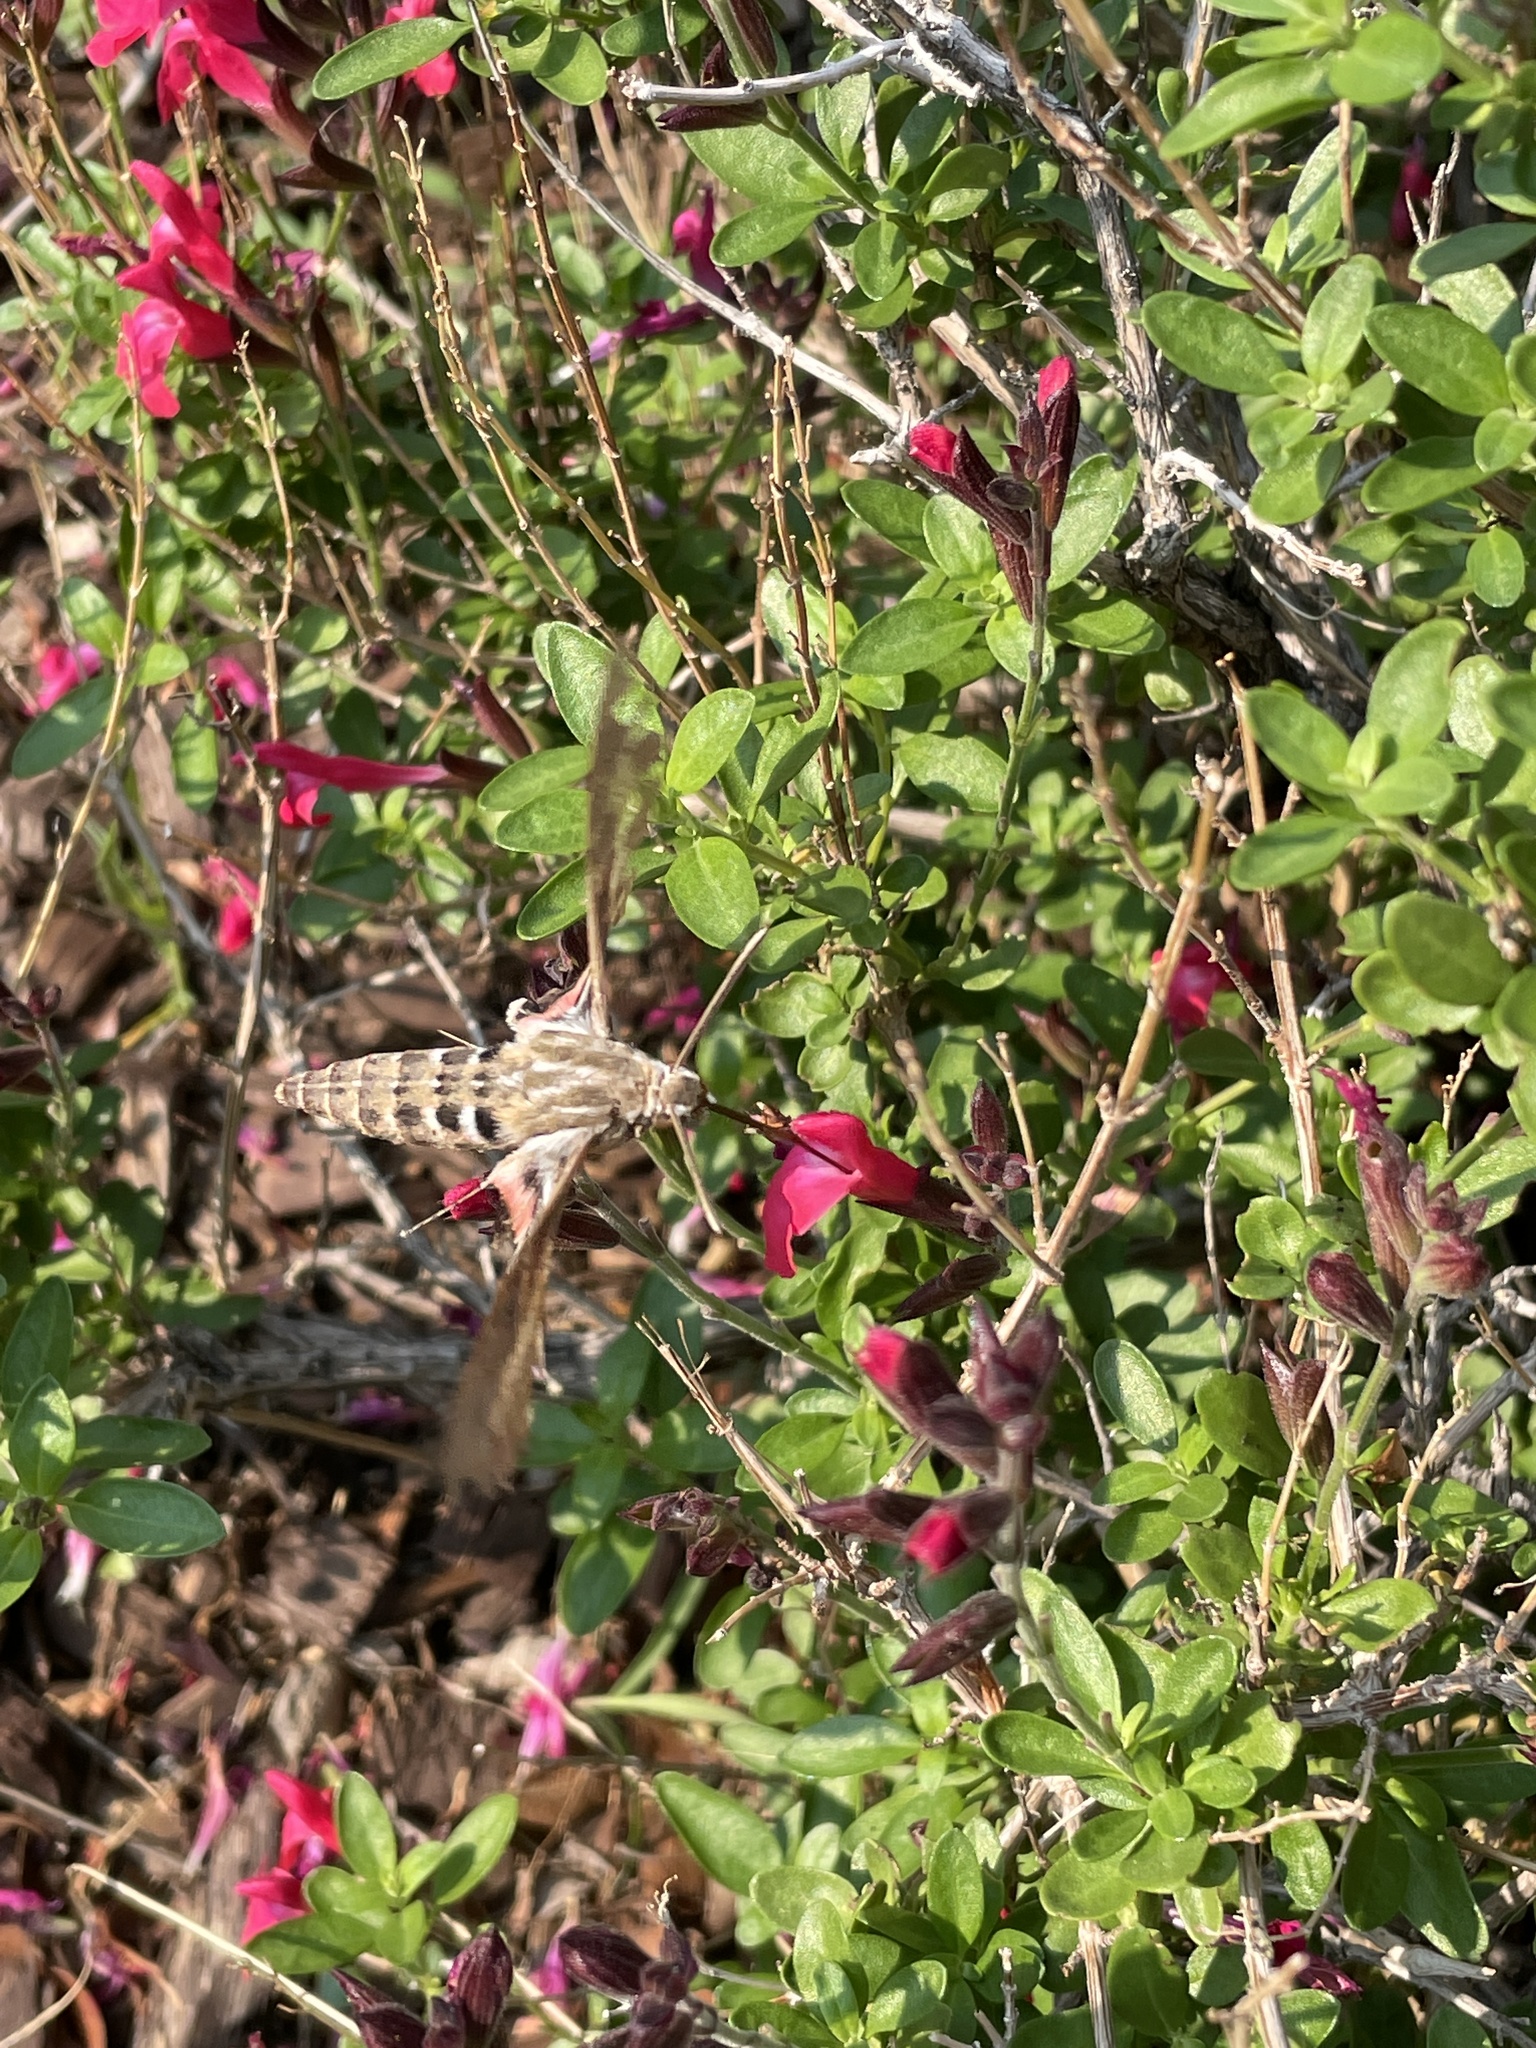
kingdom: Animalia
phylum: Arthropoda
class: Insecta
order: Lepidoptera
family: Sphingidae
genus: Hyles
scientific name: Hyles lineata
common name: White-lined sphinx
